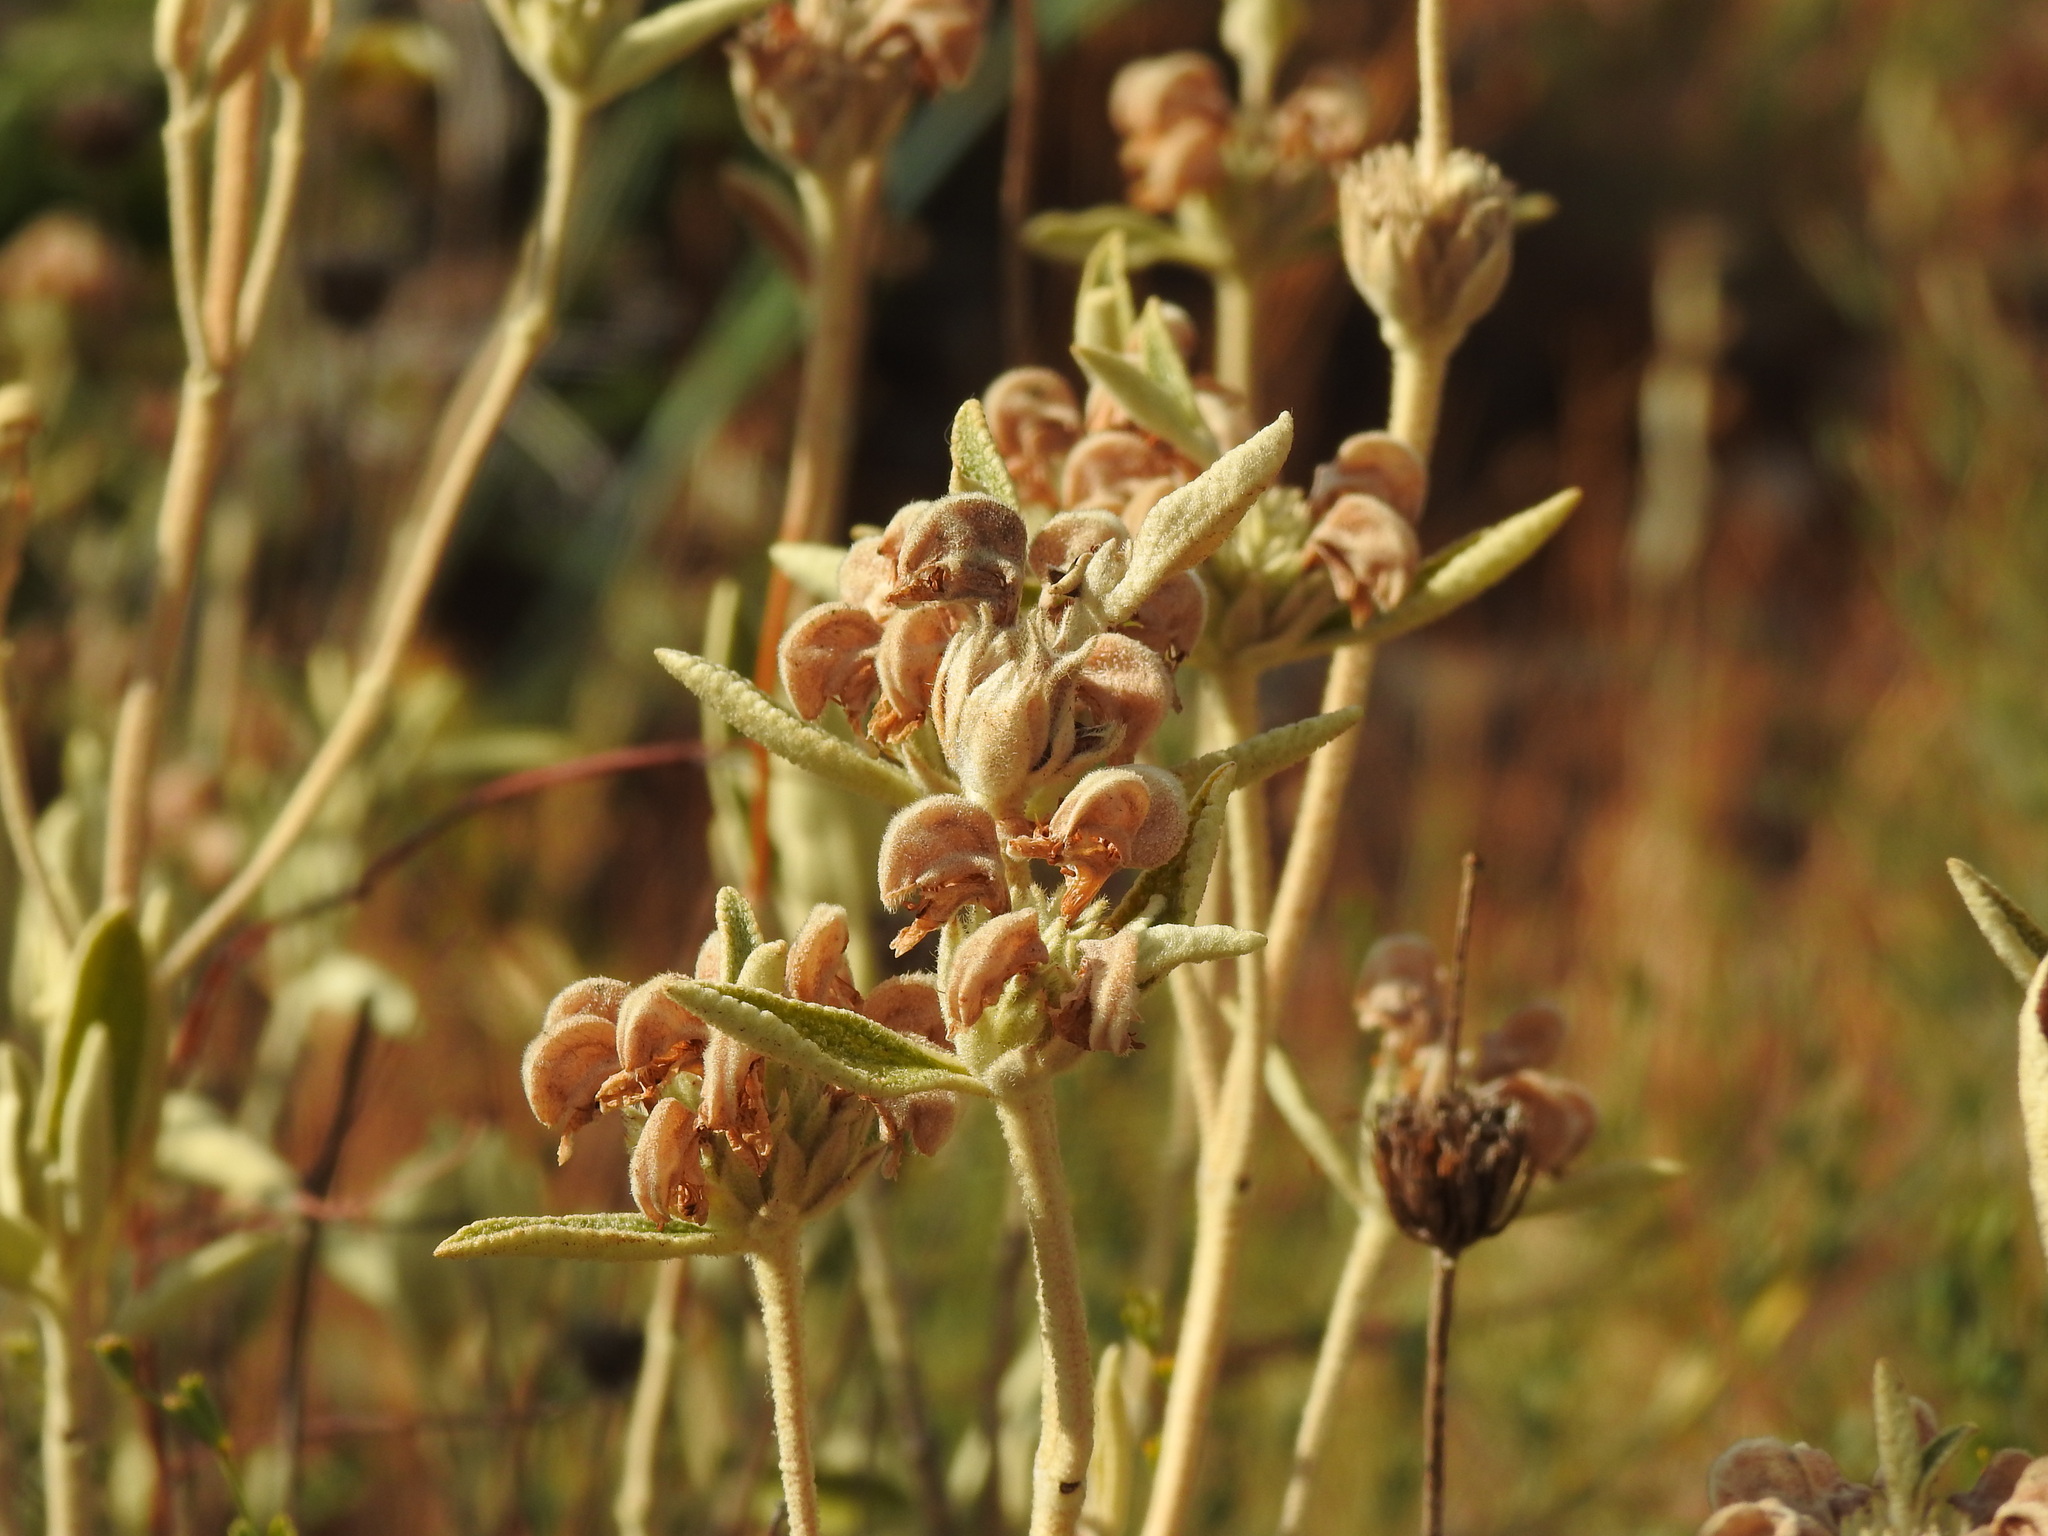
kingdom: Plantae
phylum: Tracheophyta
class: Magnoliopsida
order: Lamiales
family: Lamiaceae
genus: Phlomis
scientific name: Phlomis purpurea
